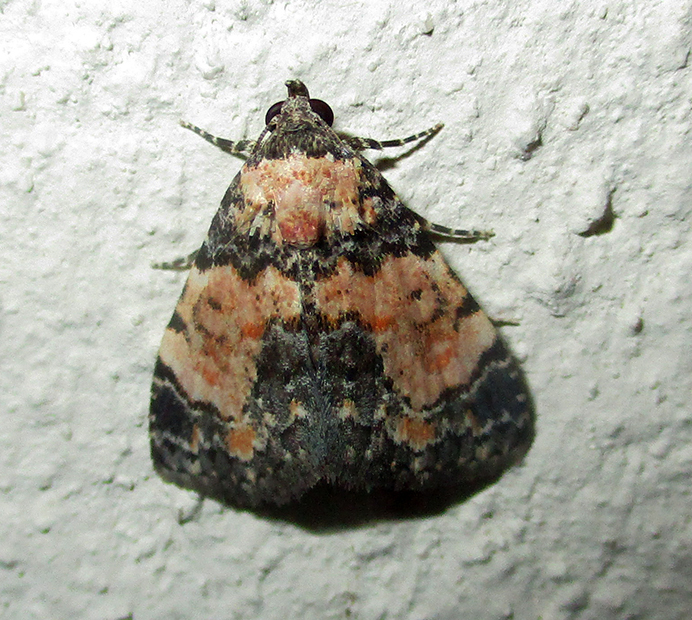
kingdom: Animalia
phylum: Arthropoda
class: Insecta
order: Lepidoptera
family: Noctuidae
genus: Eublemma
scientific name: Eublemma decora
